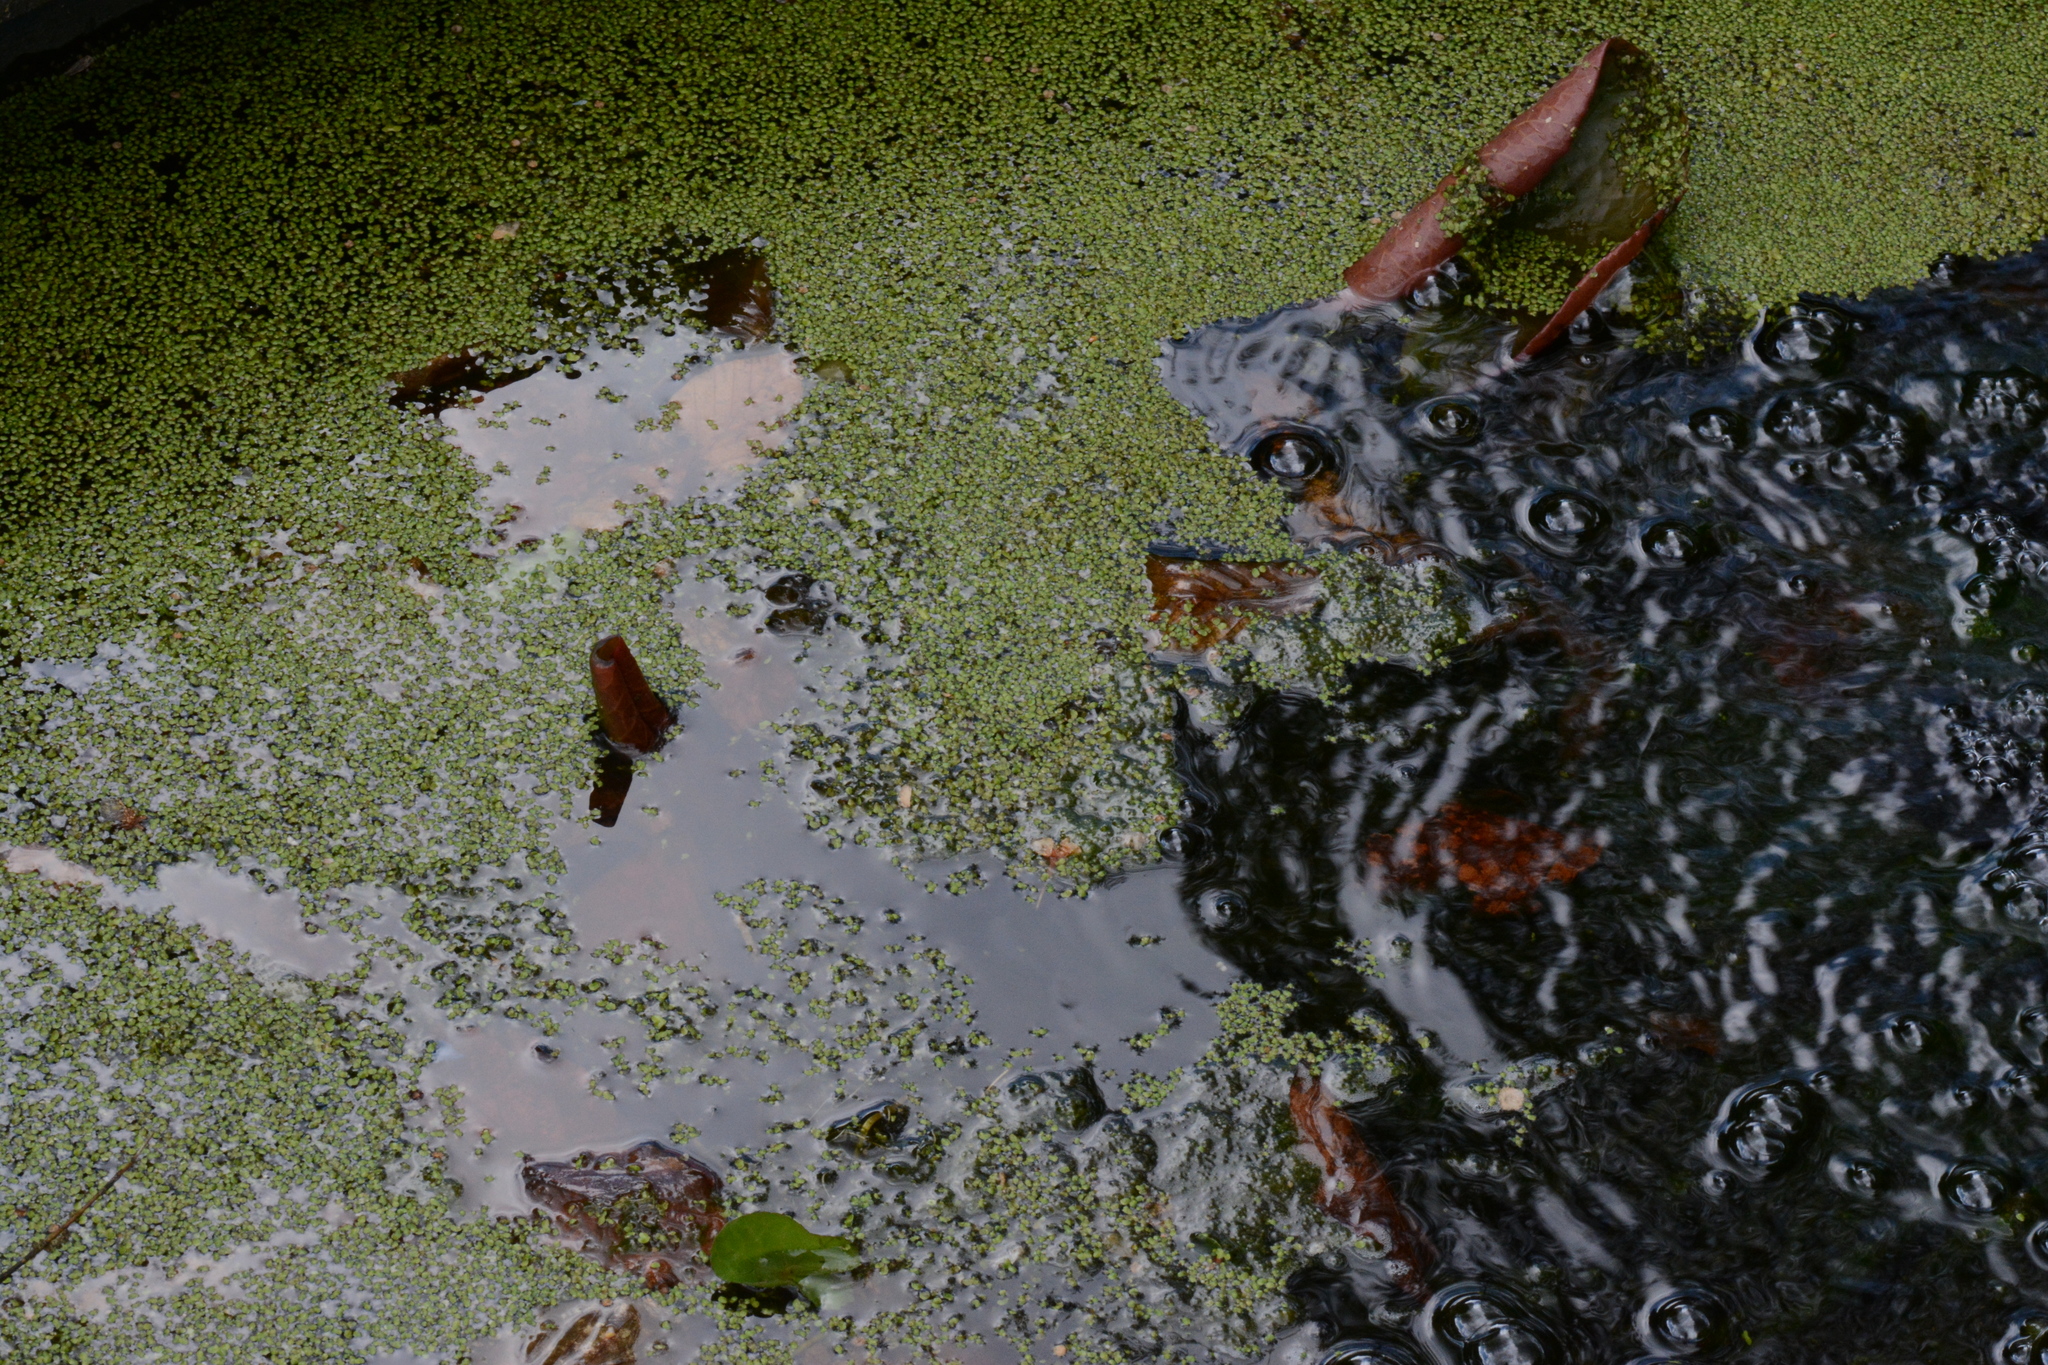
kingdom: Plantae
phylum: Tracheophyta
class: Liliopsida
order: Alismatales
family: Araceae
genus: Lemna
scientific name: Lemna minor
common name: Common duckweed
